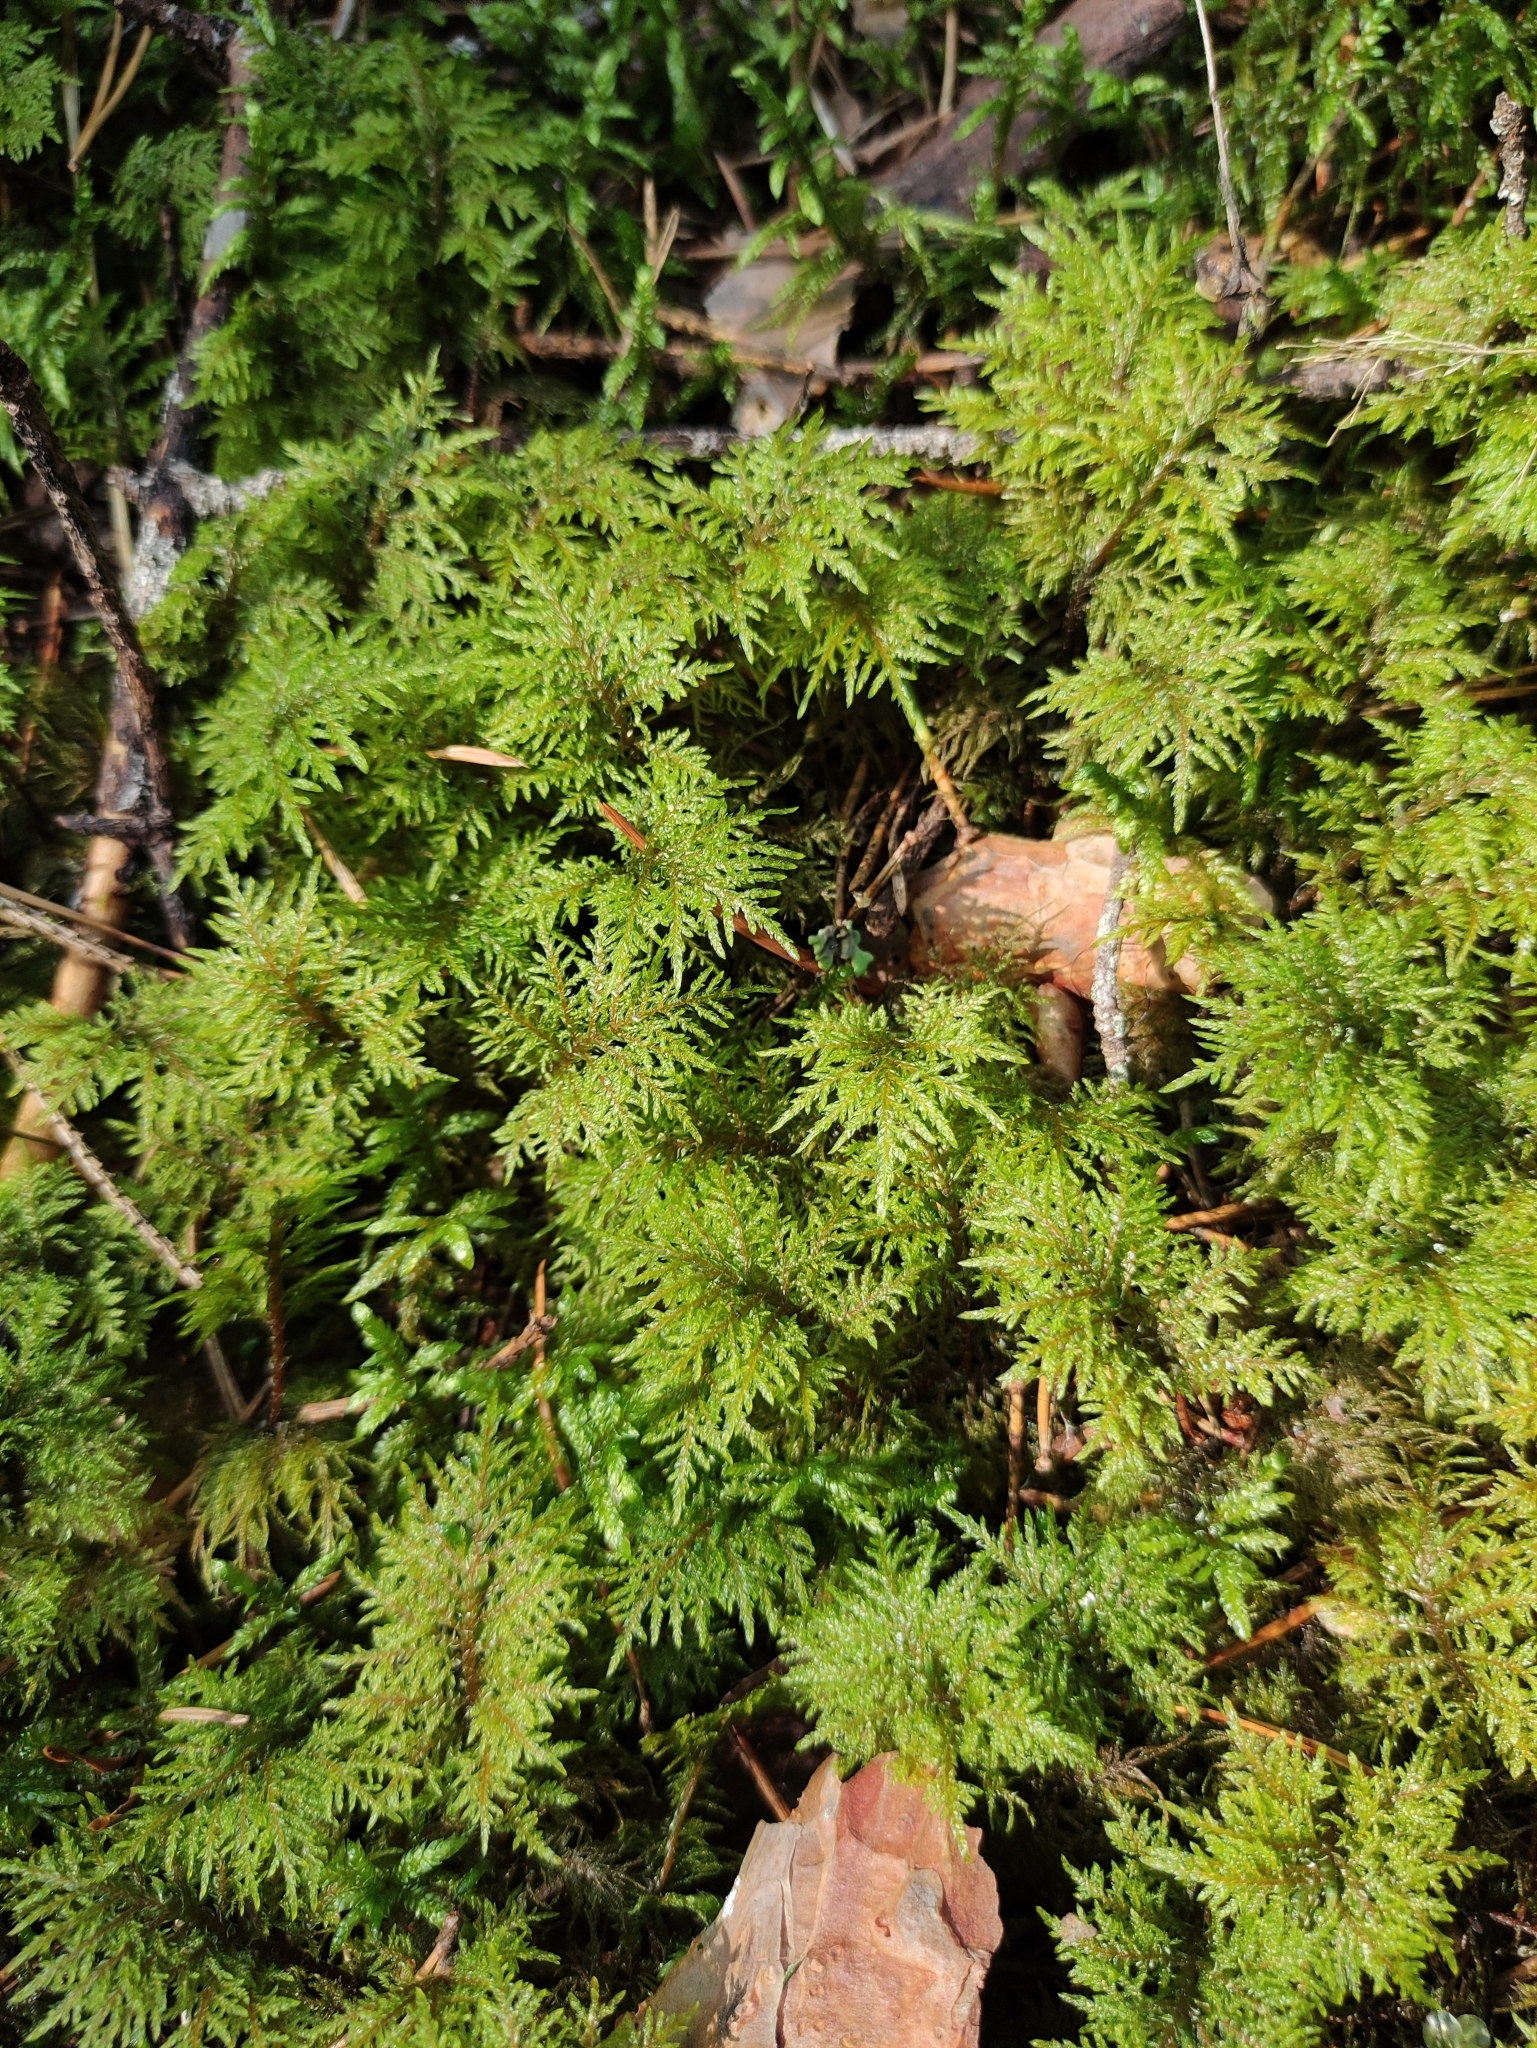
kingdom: Plantae
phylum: Bryophyta
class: Bryopsida
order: Hypnales
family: Hylocomiaceae
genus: Hylocomium
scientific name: Hylocomium splendens
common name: Stairstep moss
